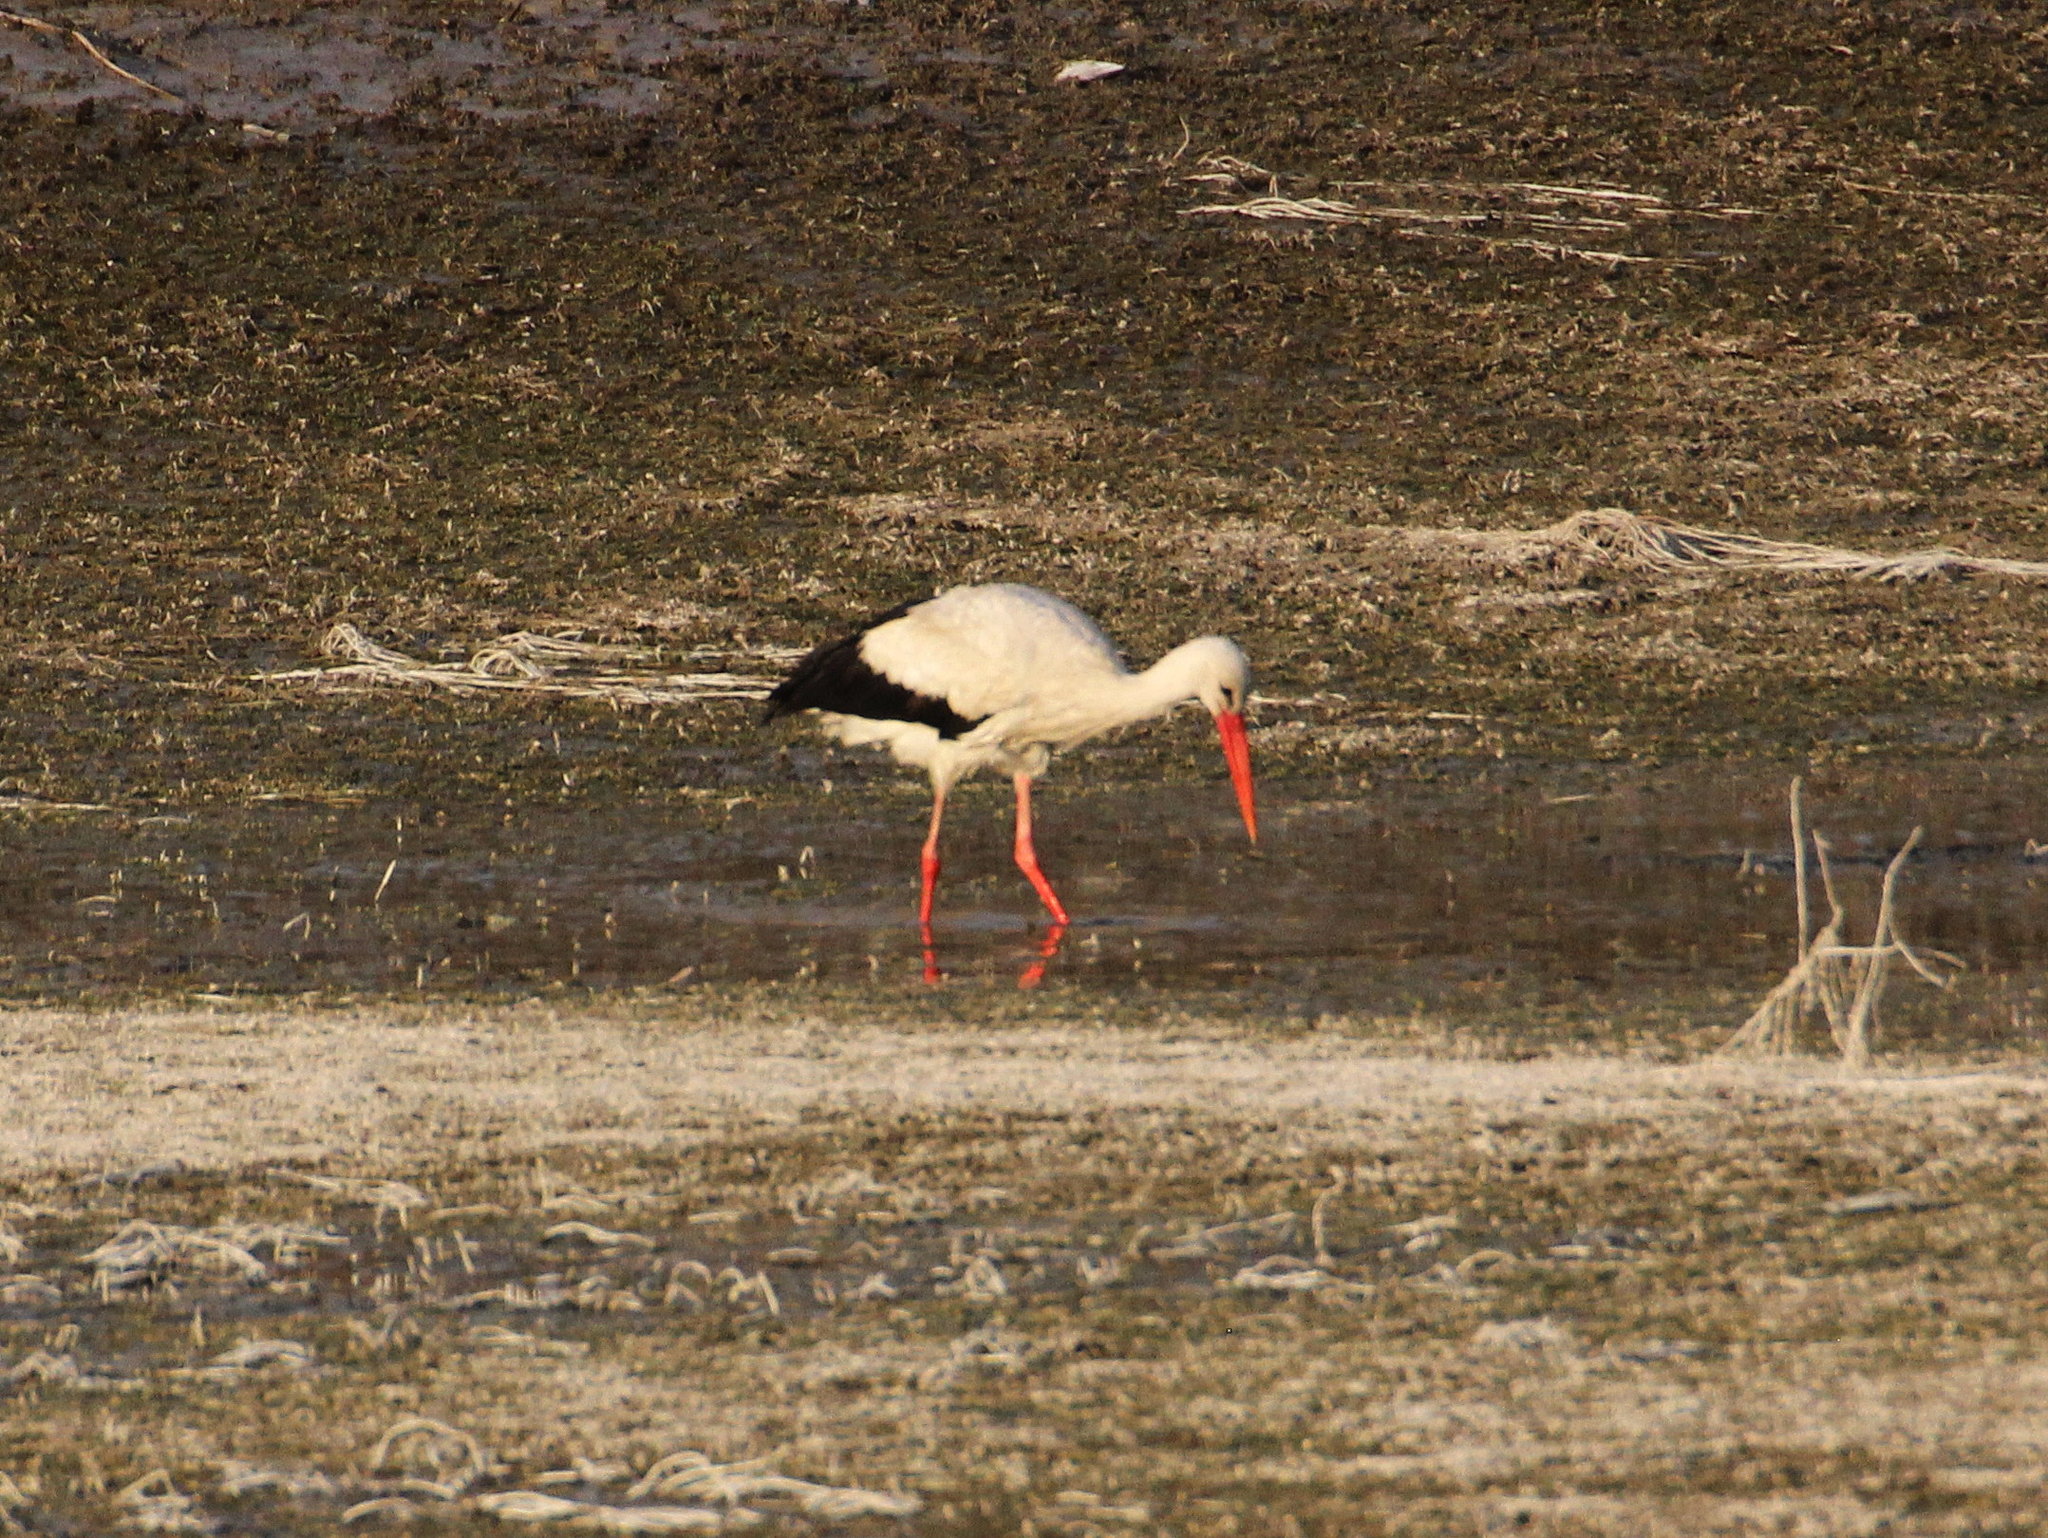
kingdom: Animalia
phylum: Chordata
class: Aves
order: Ciconiiformes
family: Ciconiidae
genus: Ciconia
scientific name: Ciconia ciconia
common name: White stork
